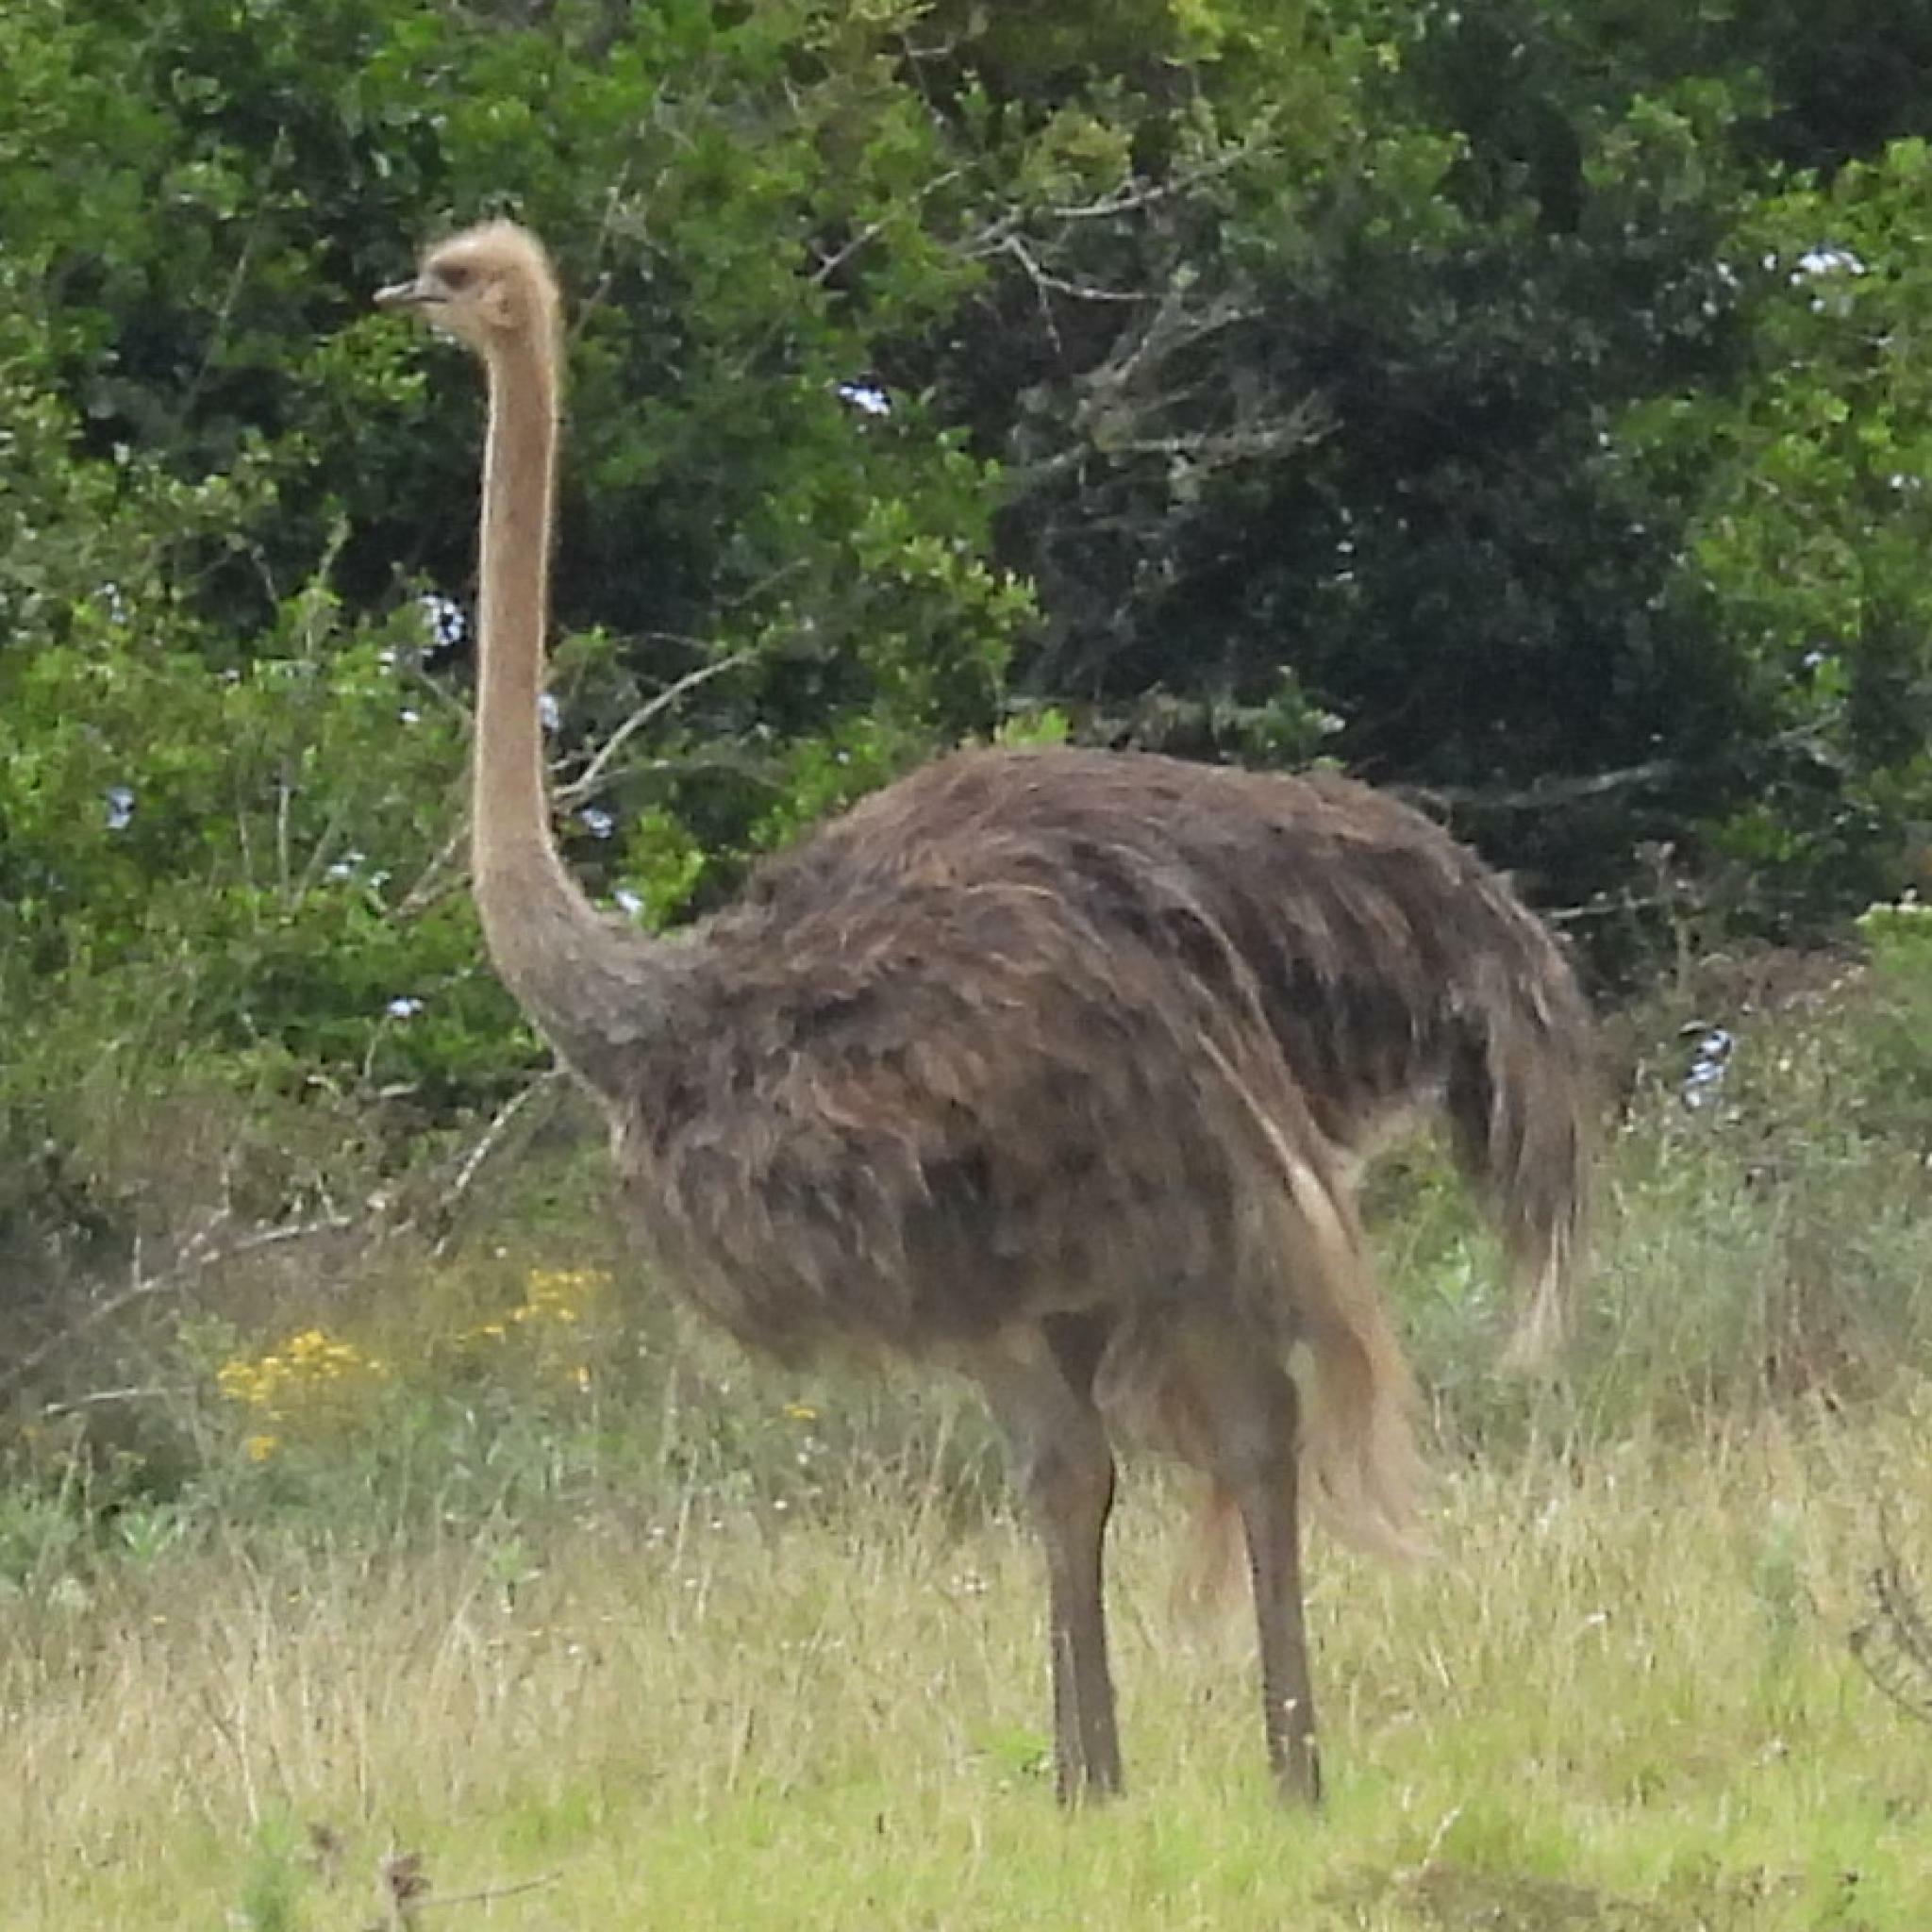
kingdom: Animalia
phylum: Chordata
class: Aves
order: Struthioniformes
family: Struthionidae
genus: Struthio
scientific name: Struthio camelus
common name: Common ostrich
